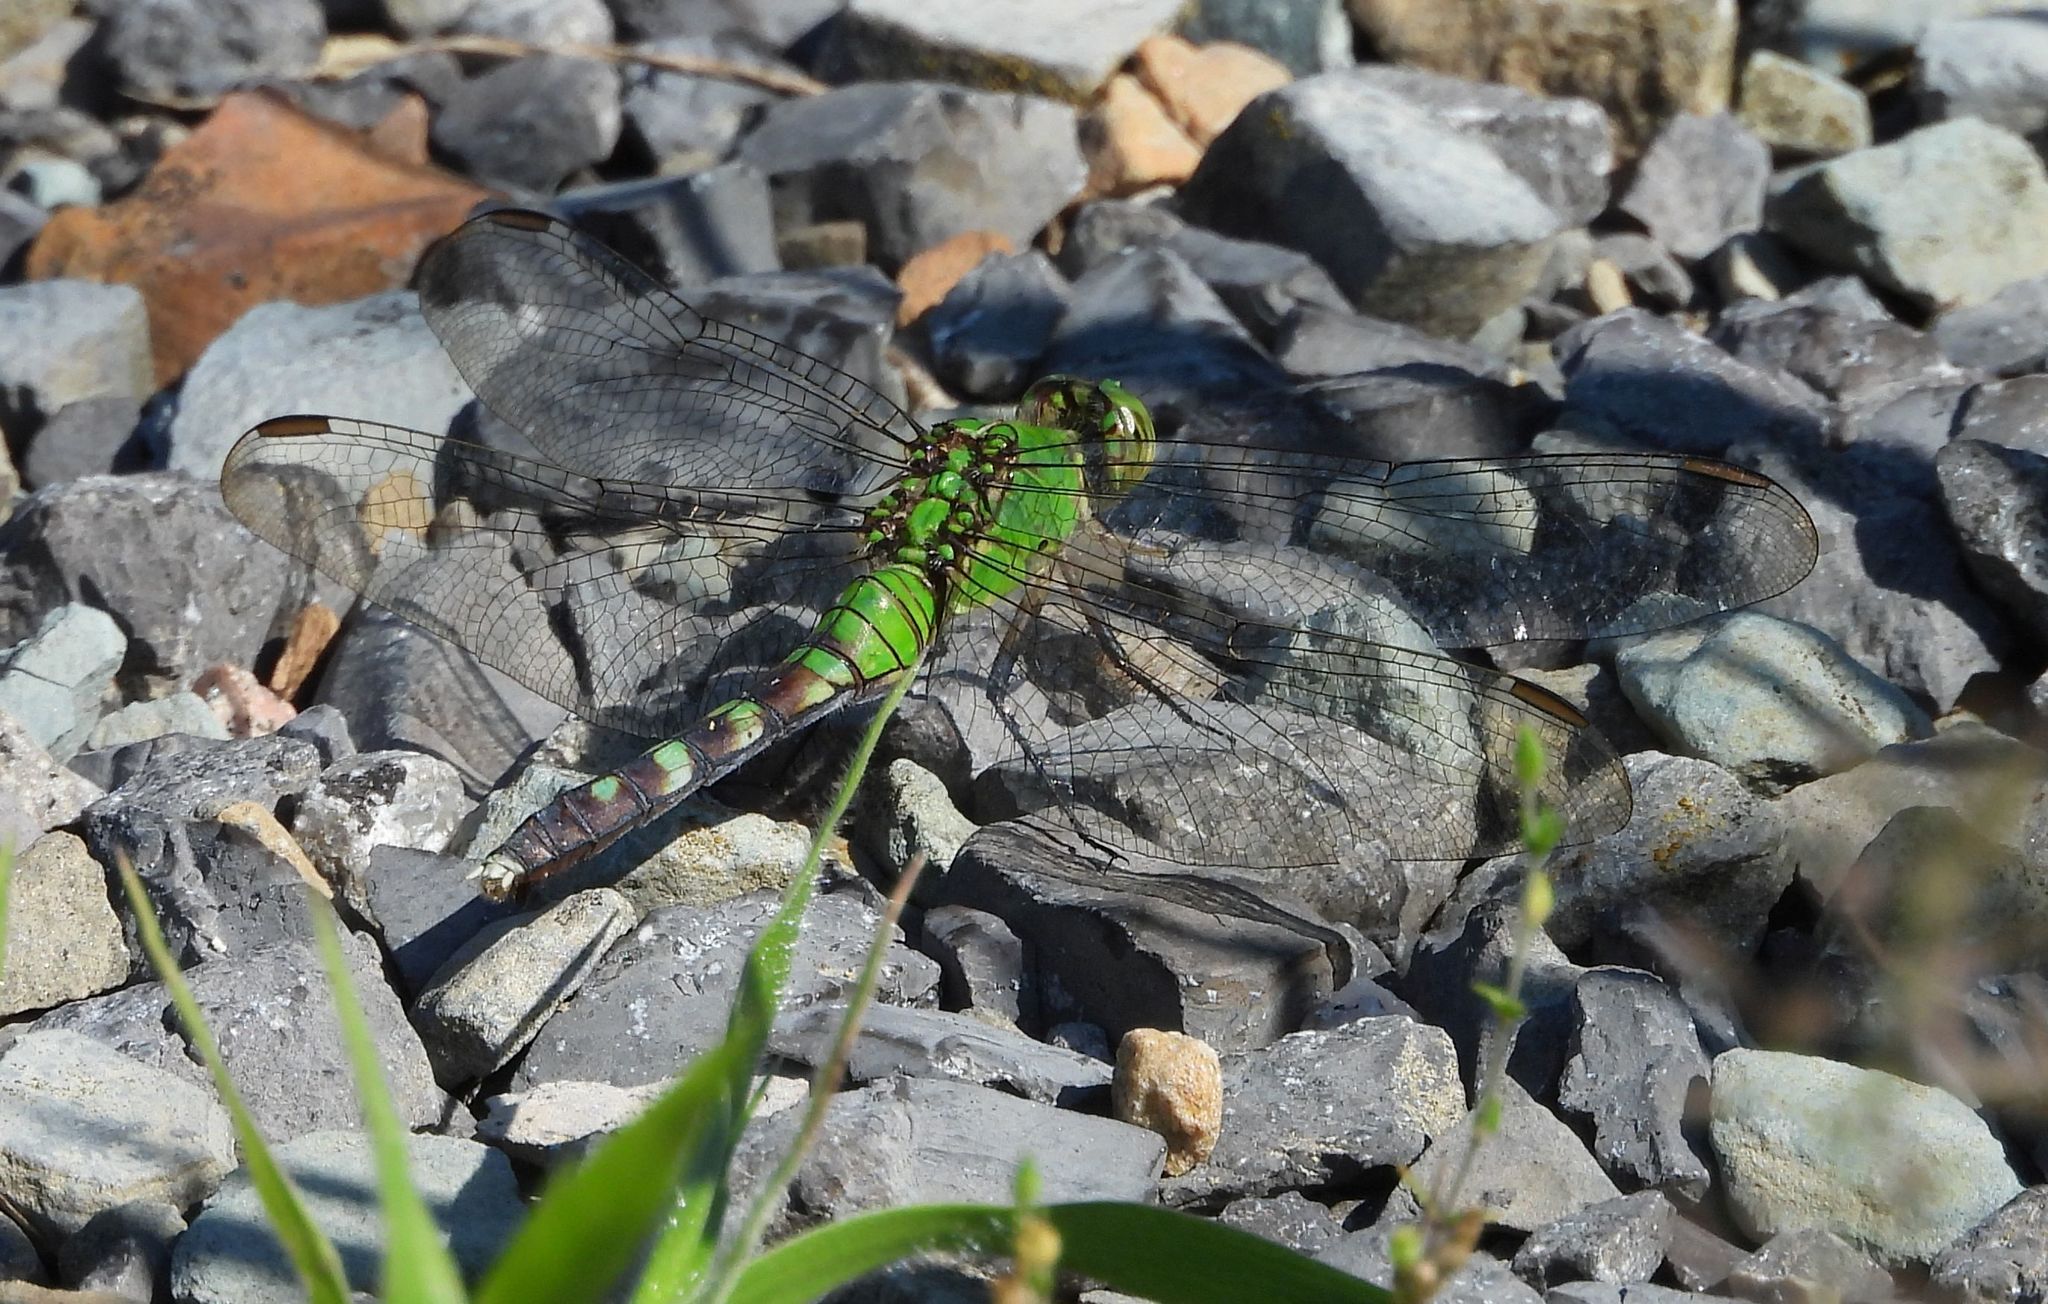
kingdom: Animalia
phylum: Arthropoda
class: Insecta
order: Odonata
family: Libellulidae
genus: Erythemis
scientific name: Erythemis simplicicollis
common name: Eastern pondhawk
